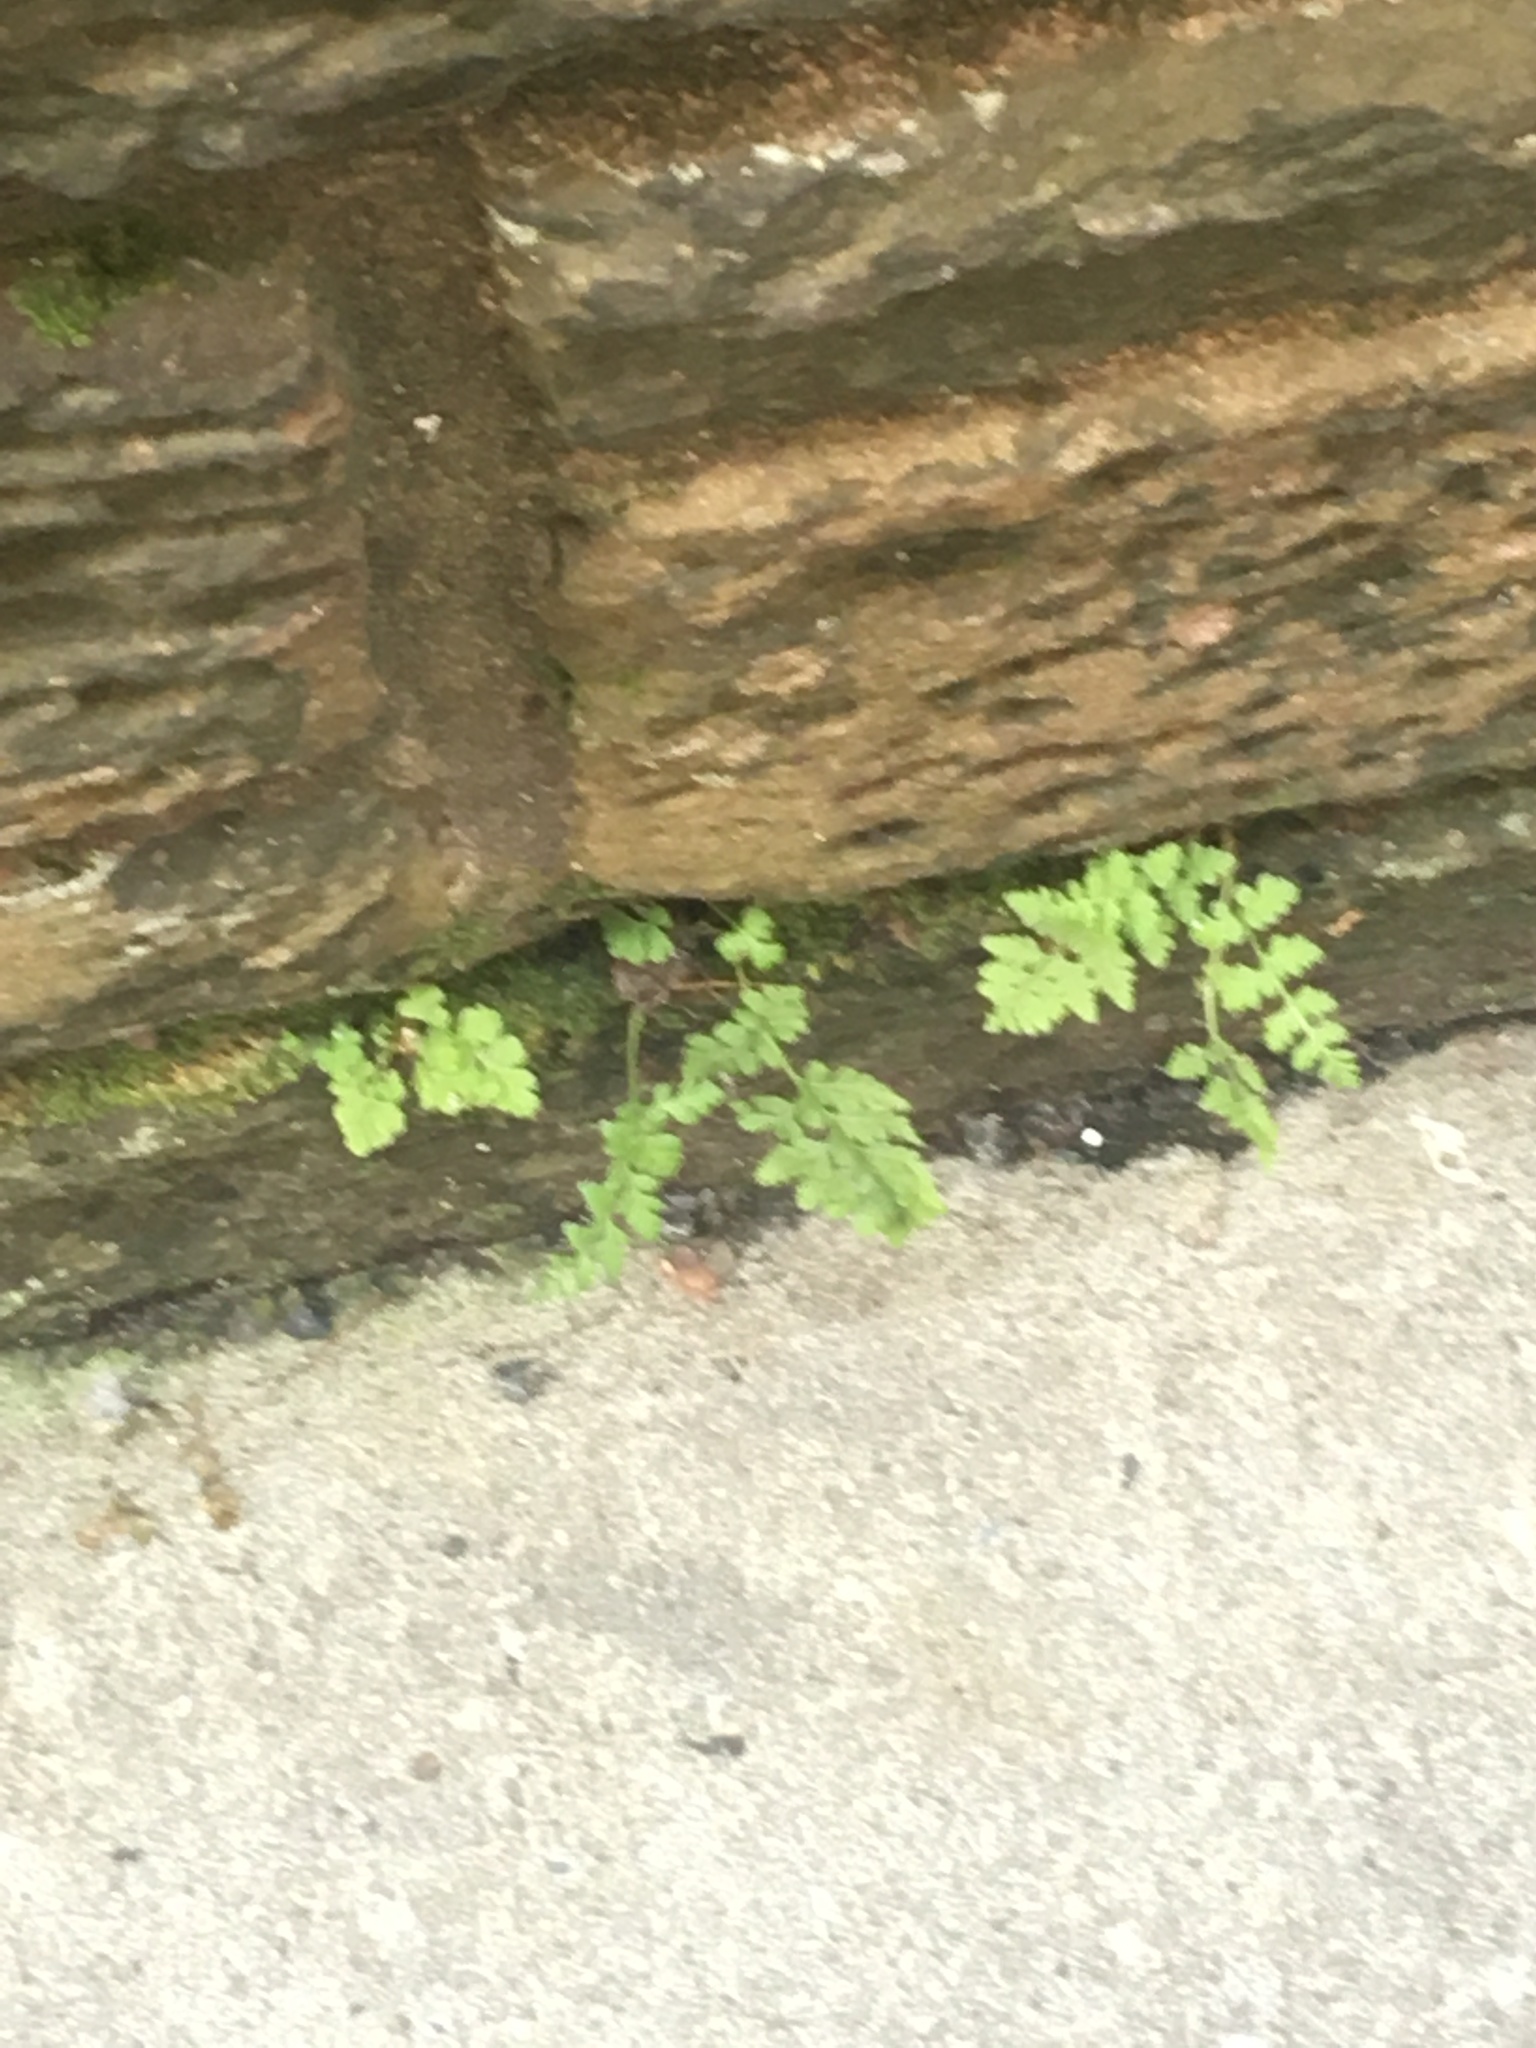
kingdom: Plantae
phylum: Tracheophyta
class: Polypodiopsida
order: Polypodiales
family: Woodsiaceae
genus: Physematium
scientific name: Physematium obtusum
